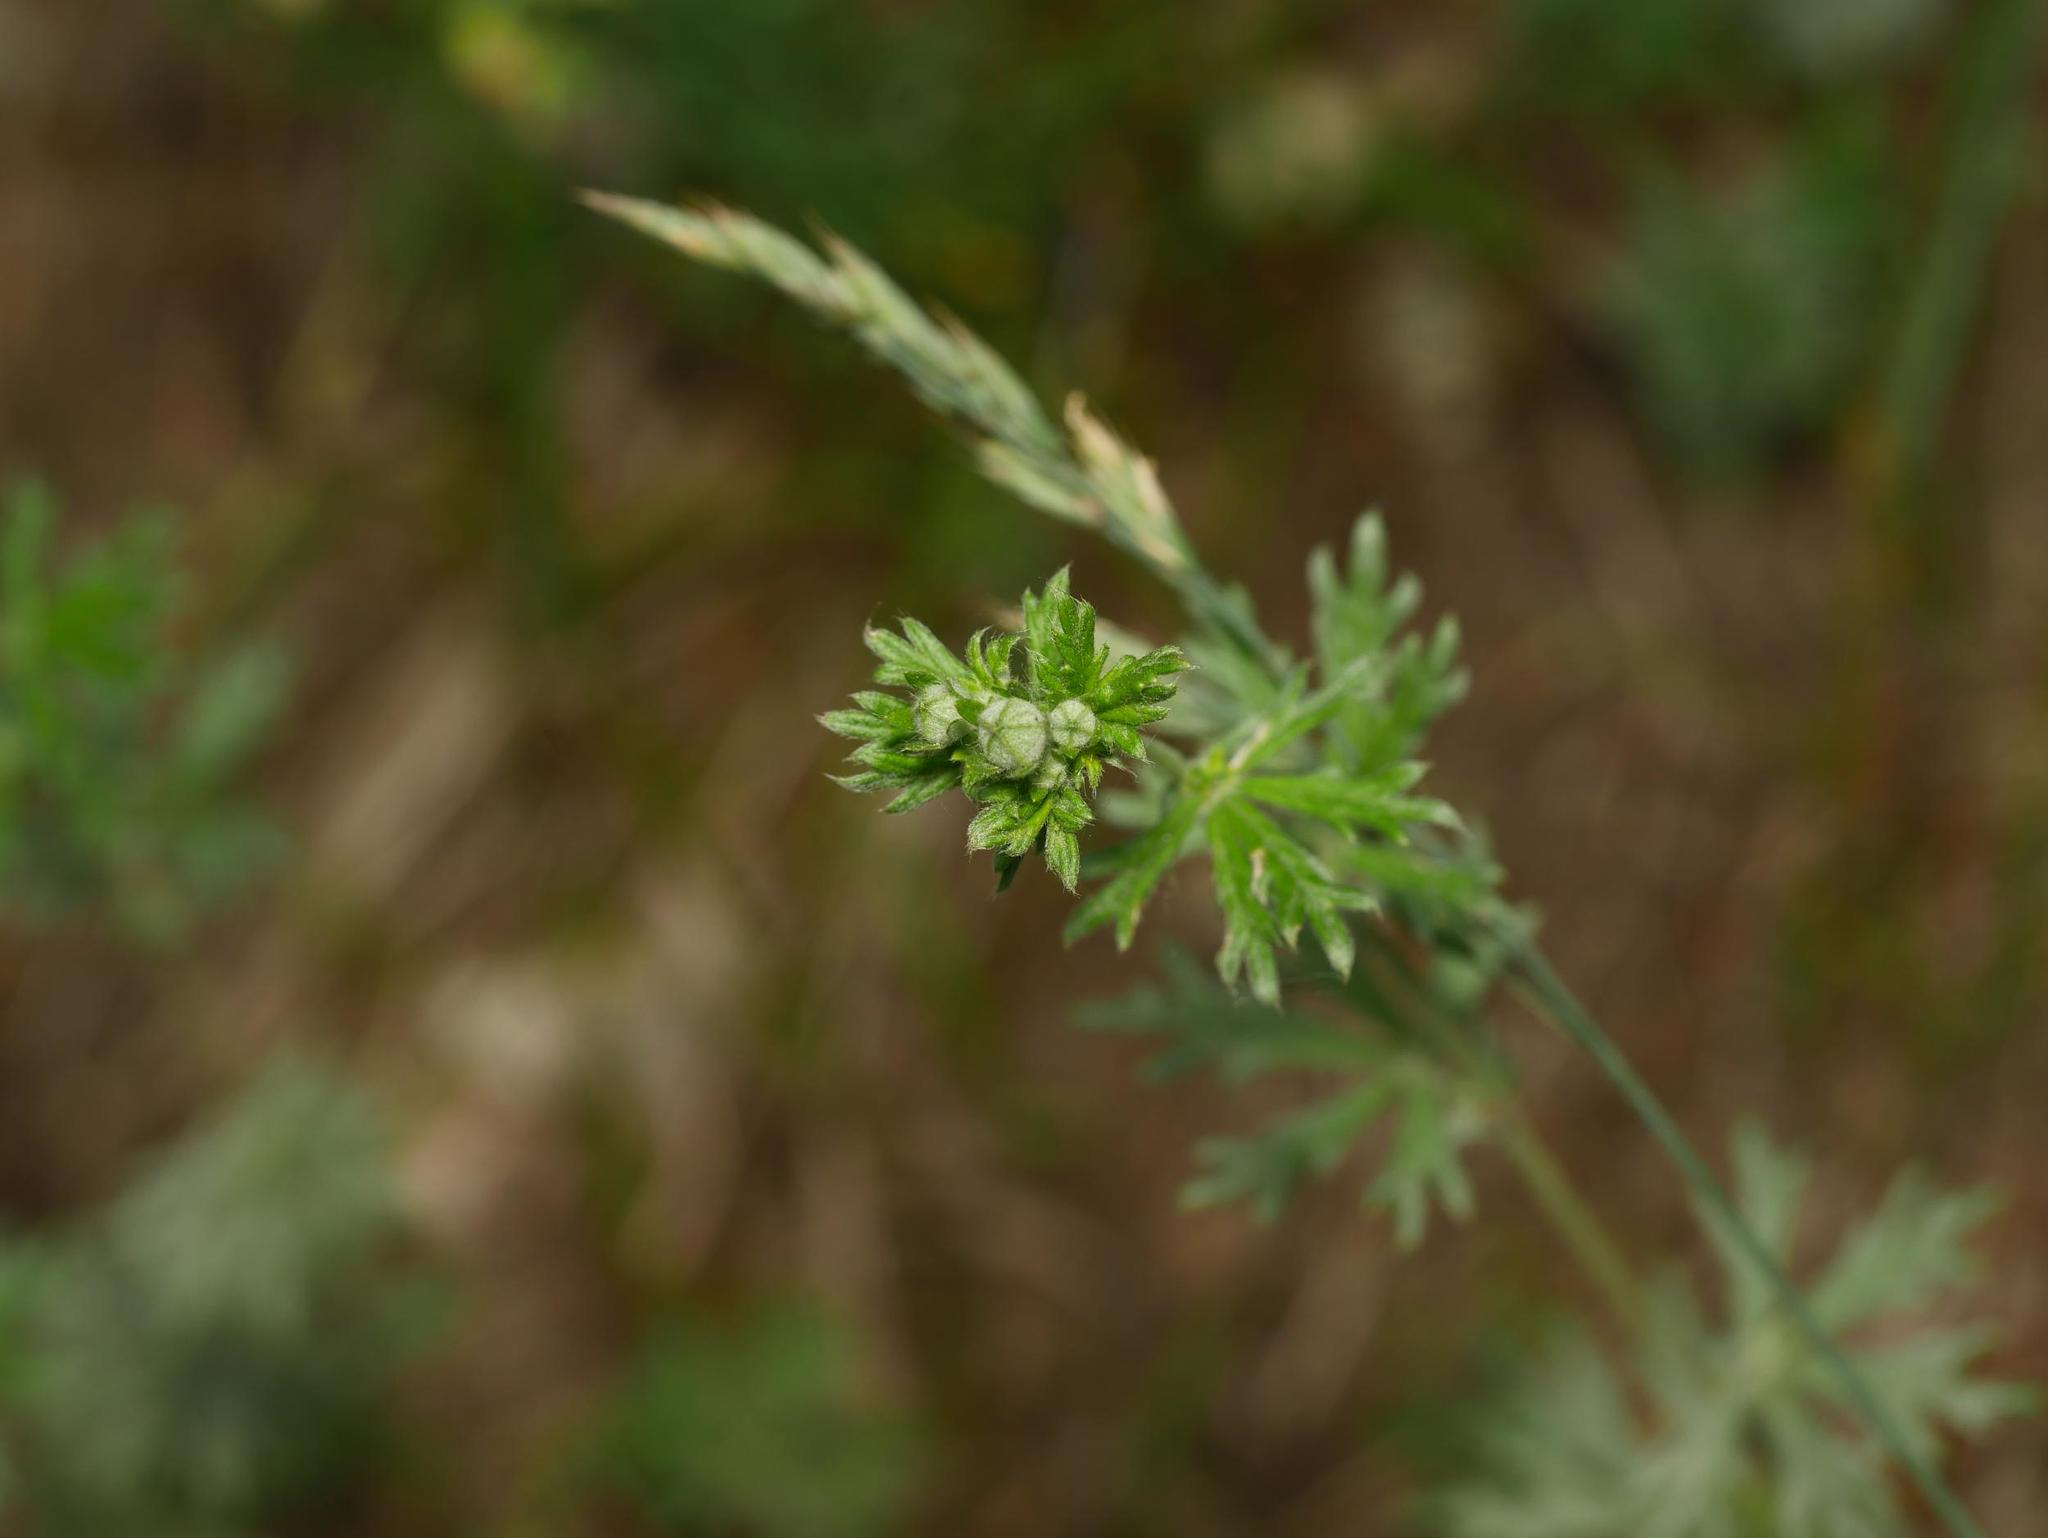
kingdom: Plantae
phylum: Tracheophyta
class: Magnoliopsida
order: Rosales
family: Rosaceae
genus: Potentilla
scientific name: Potentilla argentea
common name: Hoary cinquefoil
